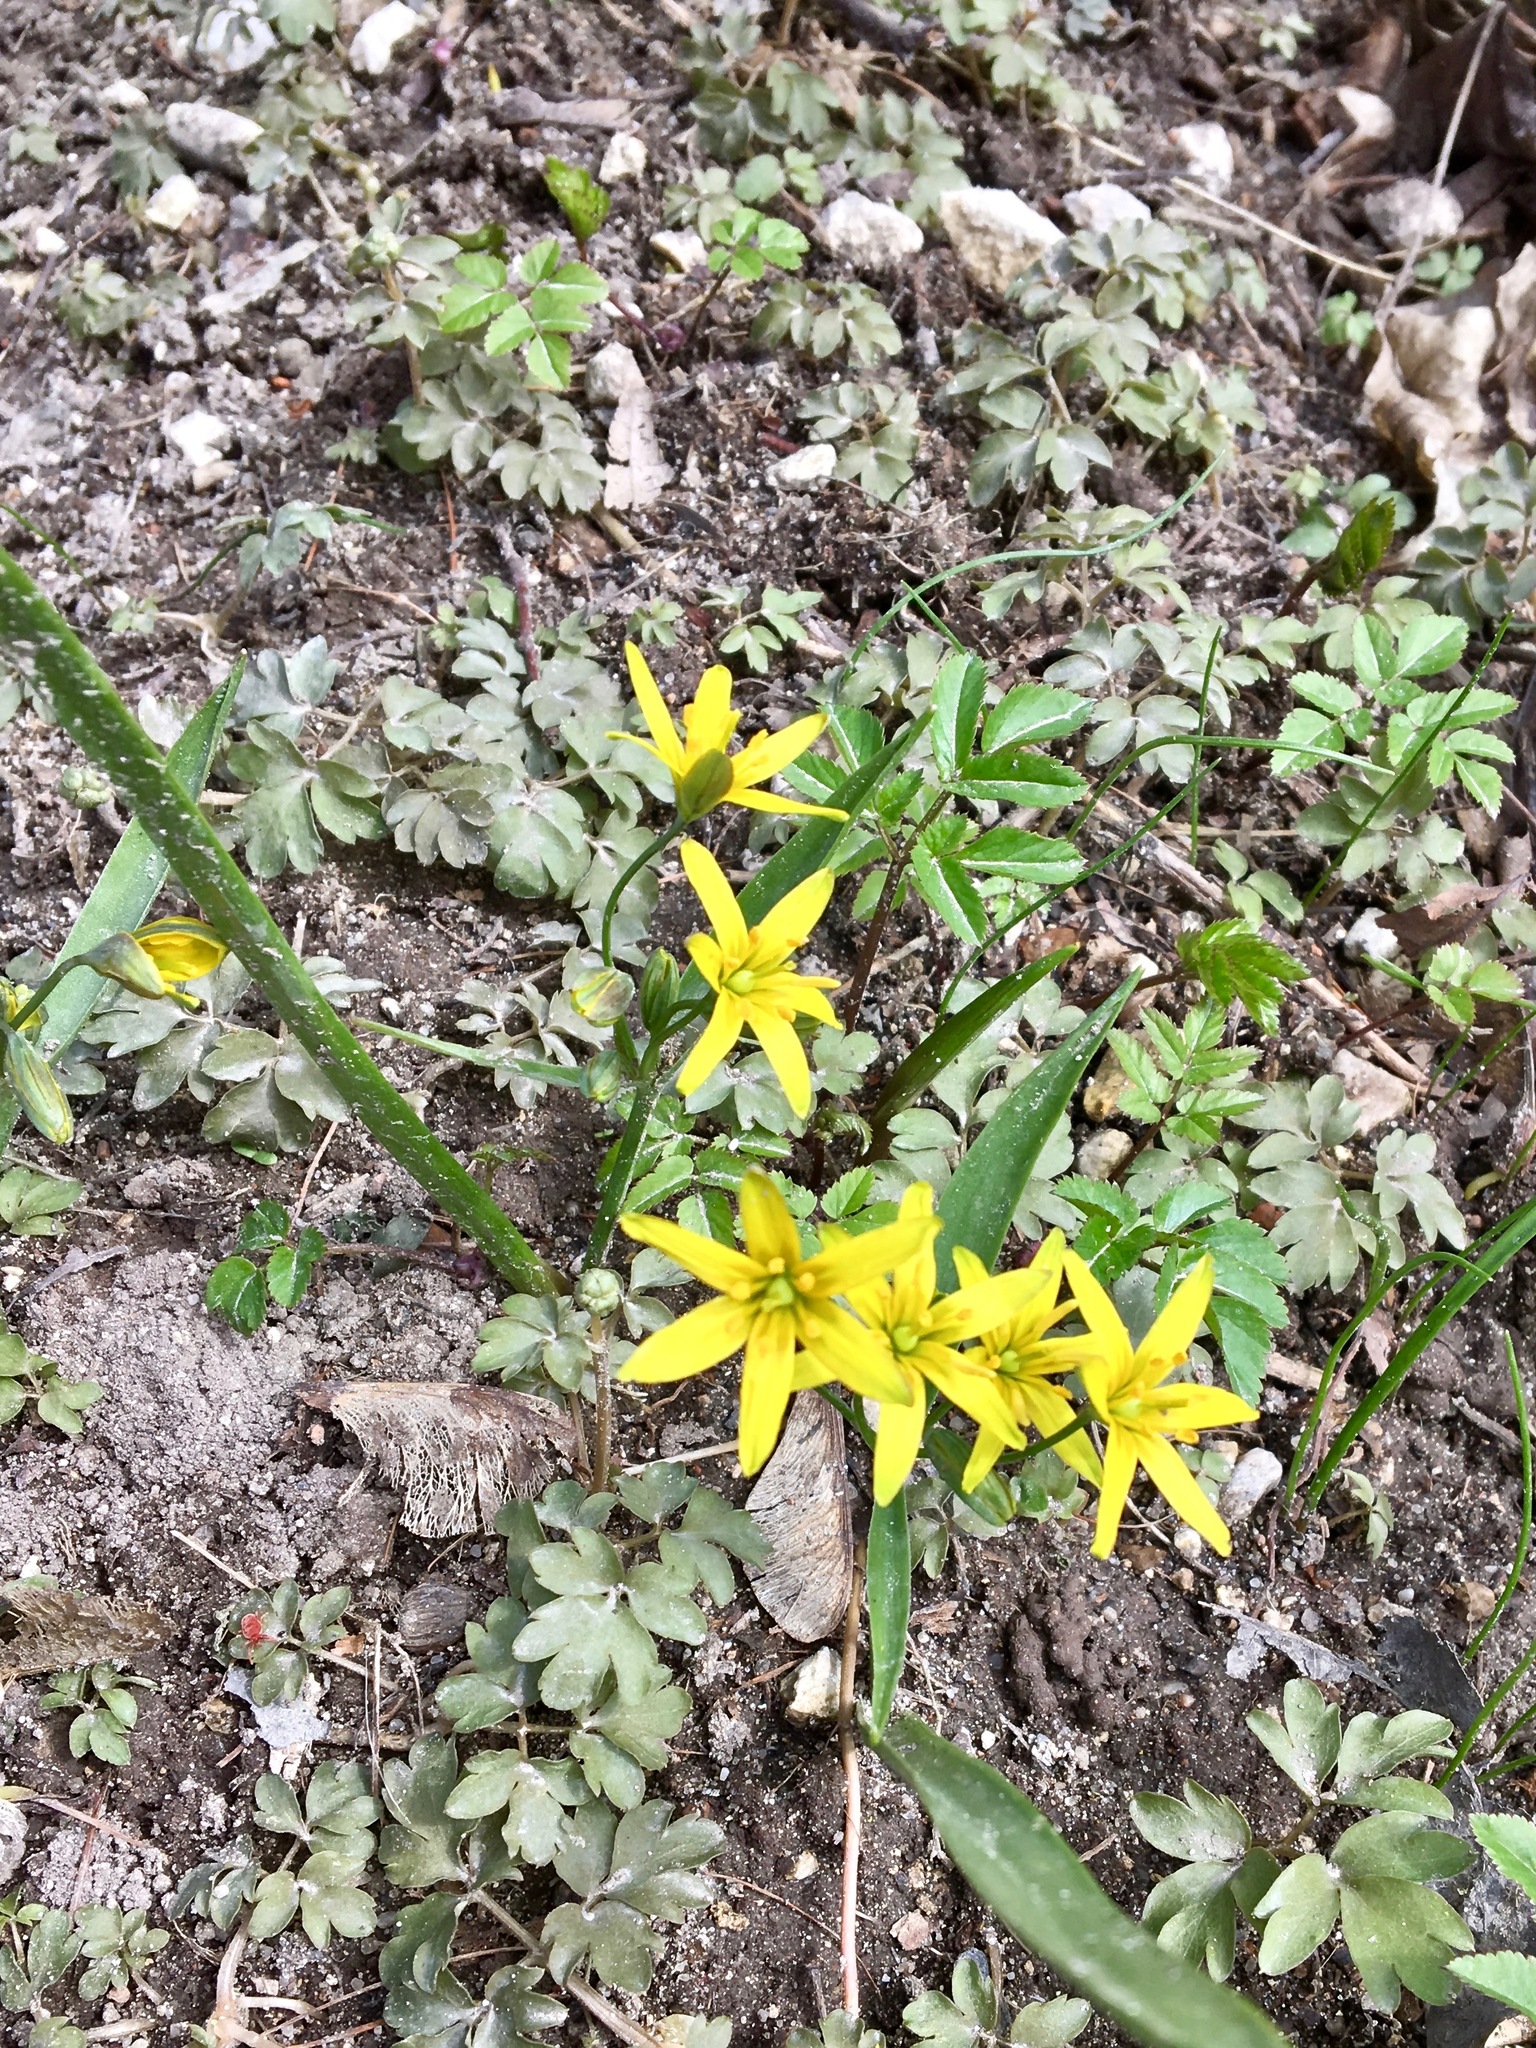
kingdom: Plantae
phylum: Tracheophyta
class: Liliopsida
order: Liliales
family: Liliaceae
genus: Gagea
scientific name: Gagea lutea
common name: Yellow star-of-bethlehem
